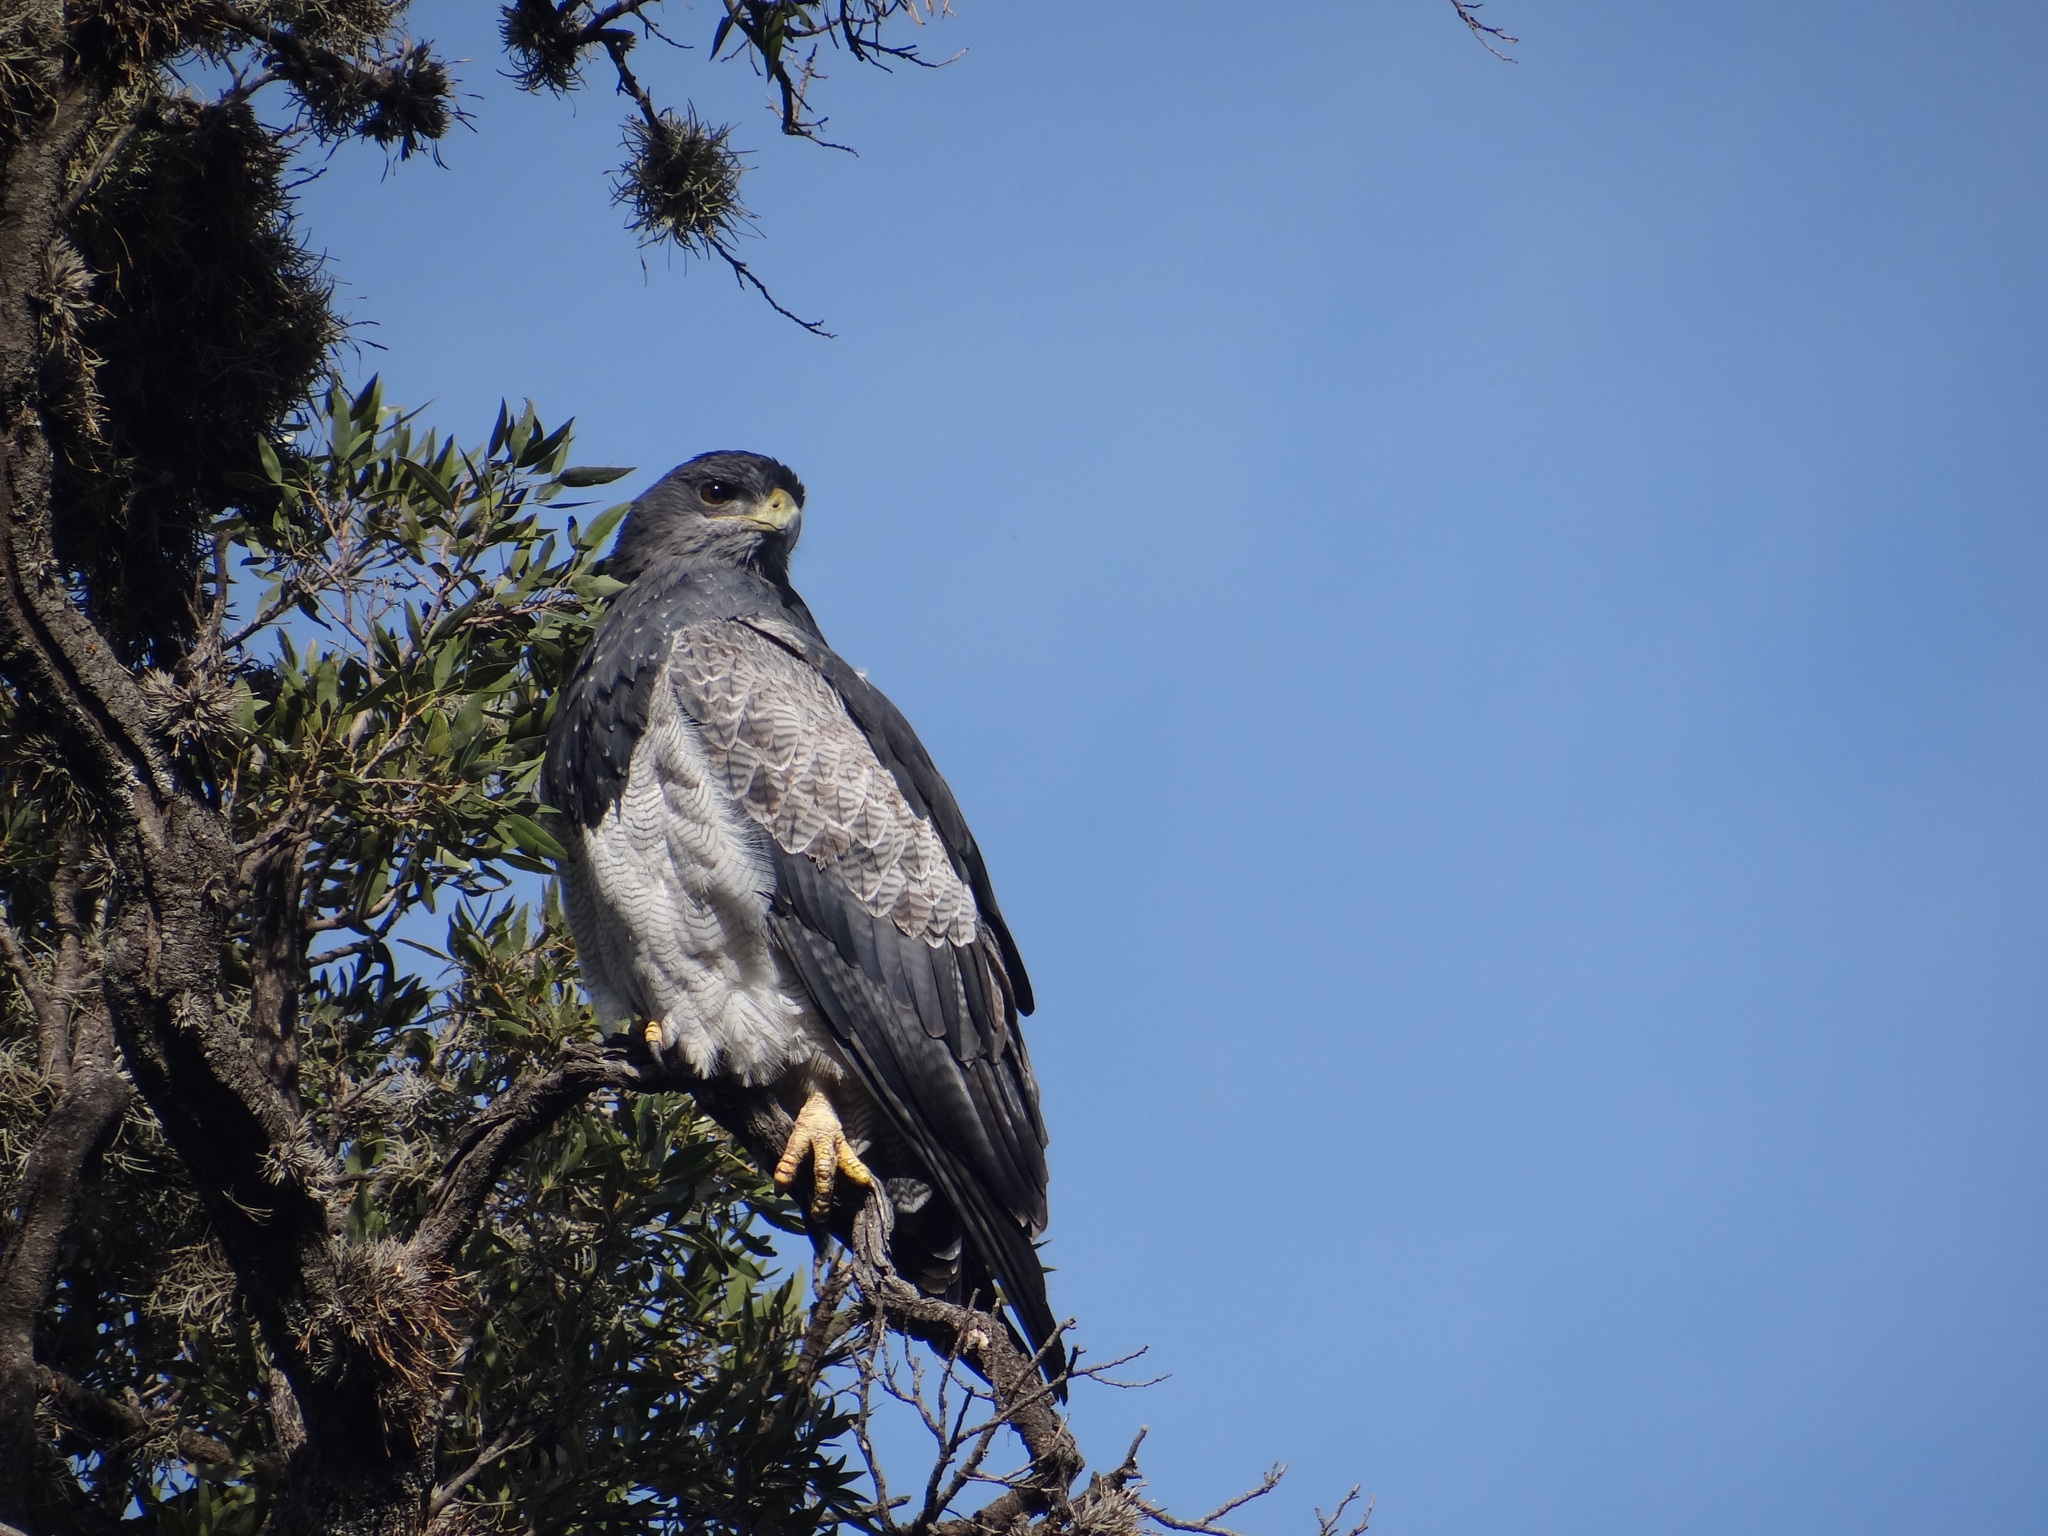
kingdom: Animalia
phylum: Chordata
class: Aves
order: Accipitriformes
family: Accipitridae
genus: Geranoaetus
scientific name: Geranoaetus melanoleucus
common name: Black-chested buzzard-eagle
